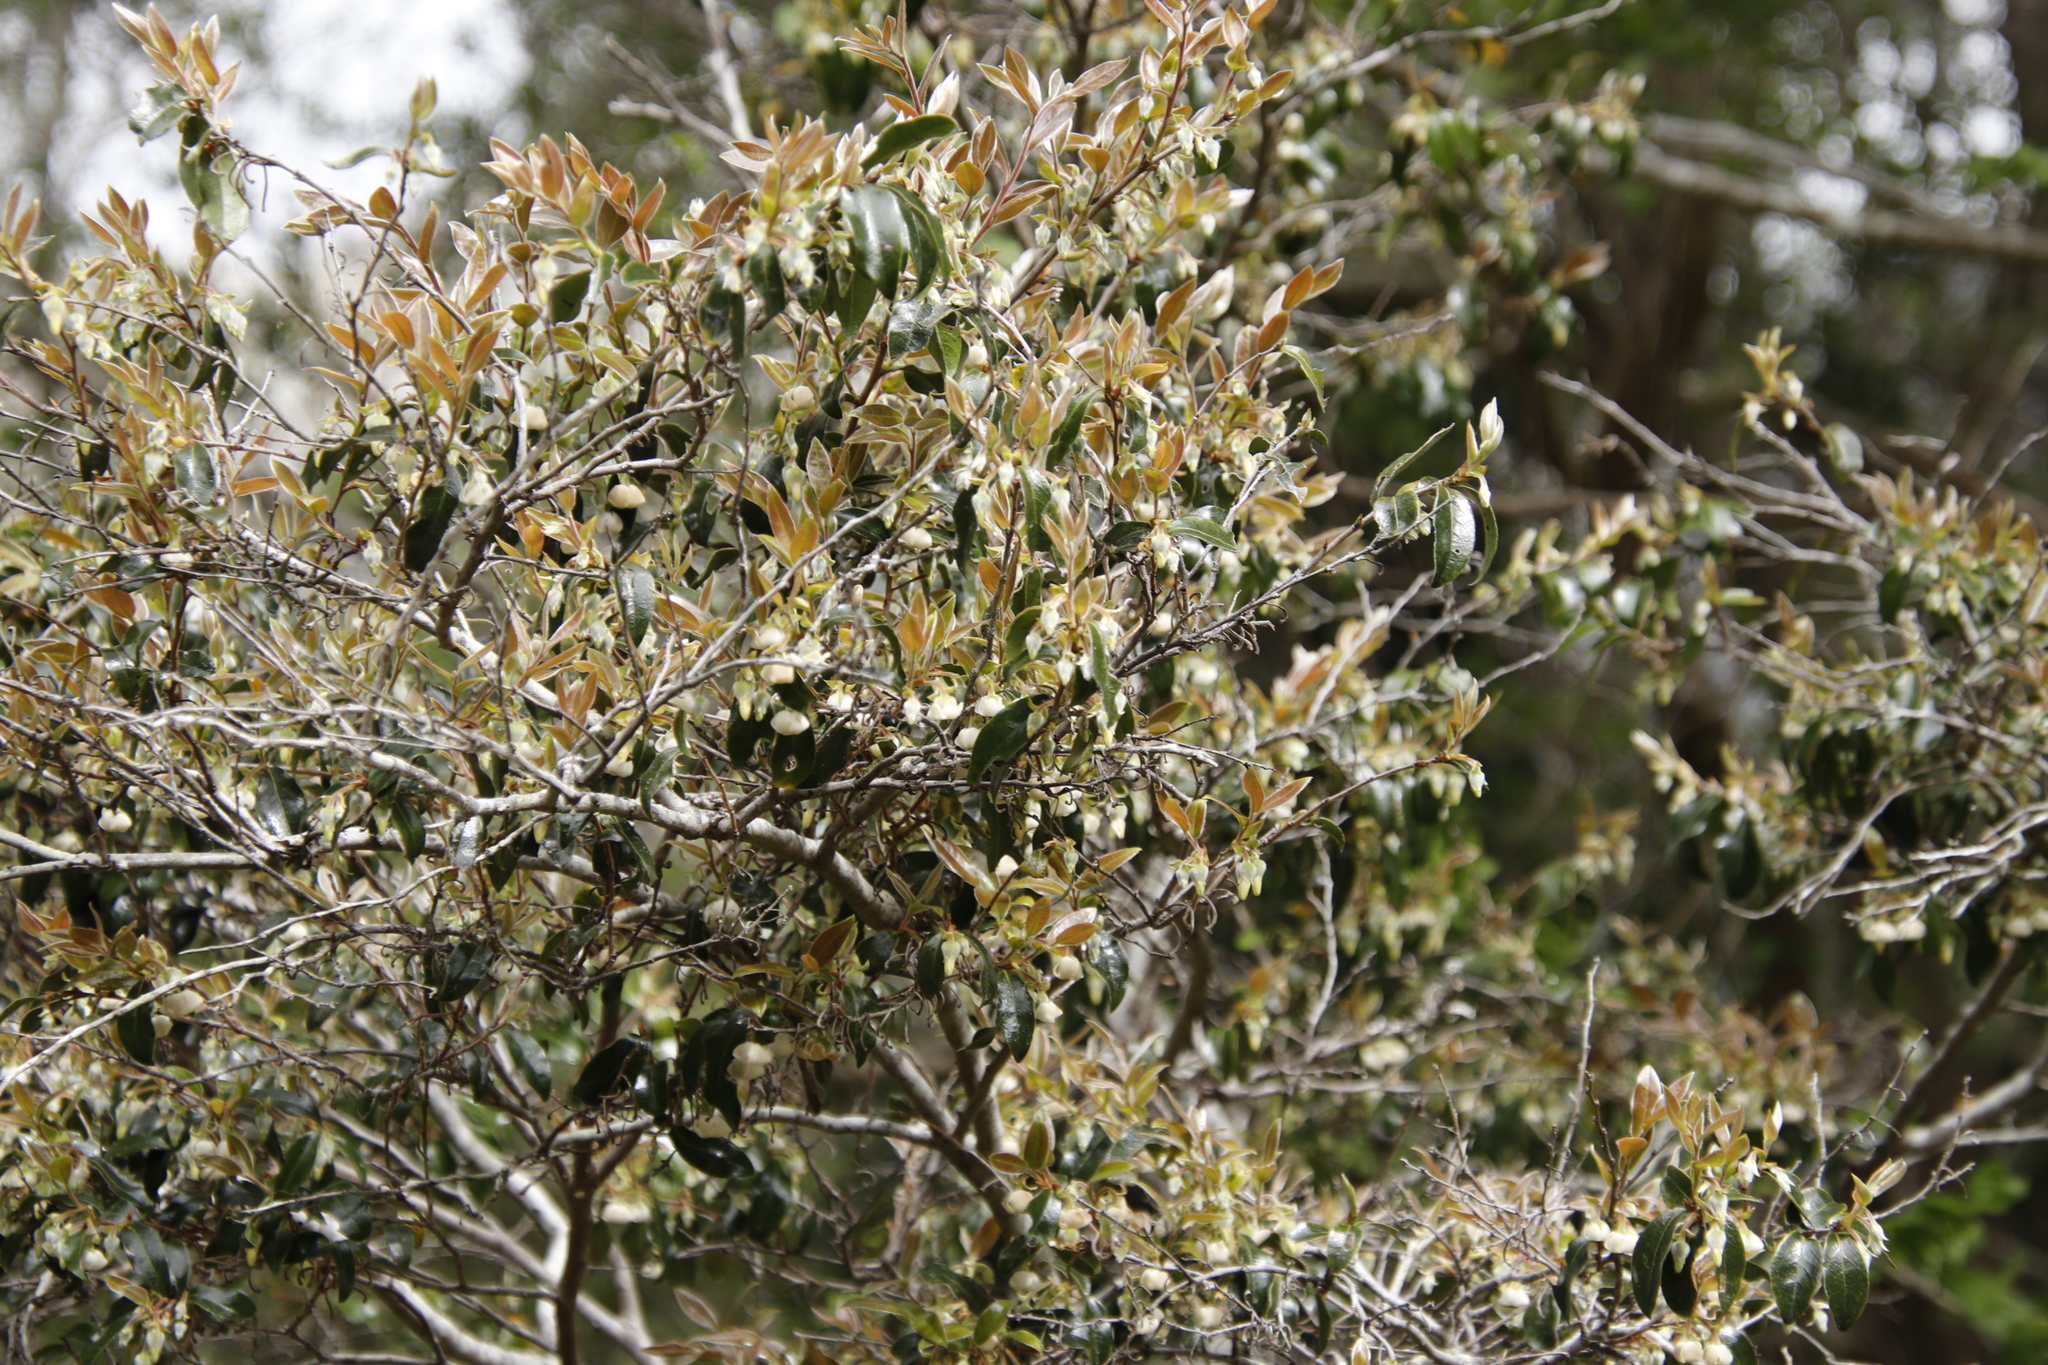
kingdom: Plantae
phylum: Tracheophyta
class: Magnoliopsida
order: Ericales
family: Ebenaceae
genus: Diospyros
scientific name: Diospyros whyteana
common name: Bladder-nut
